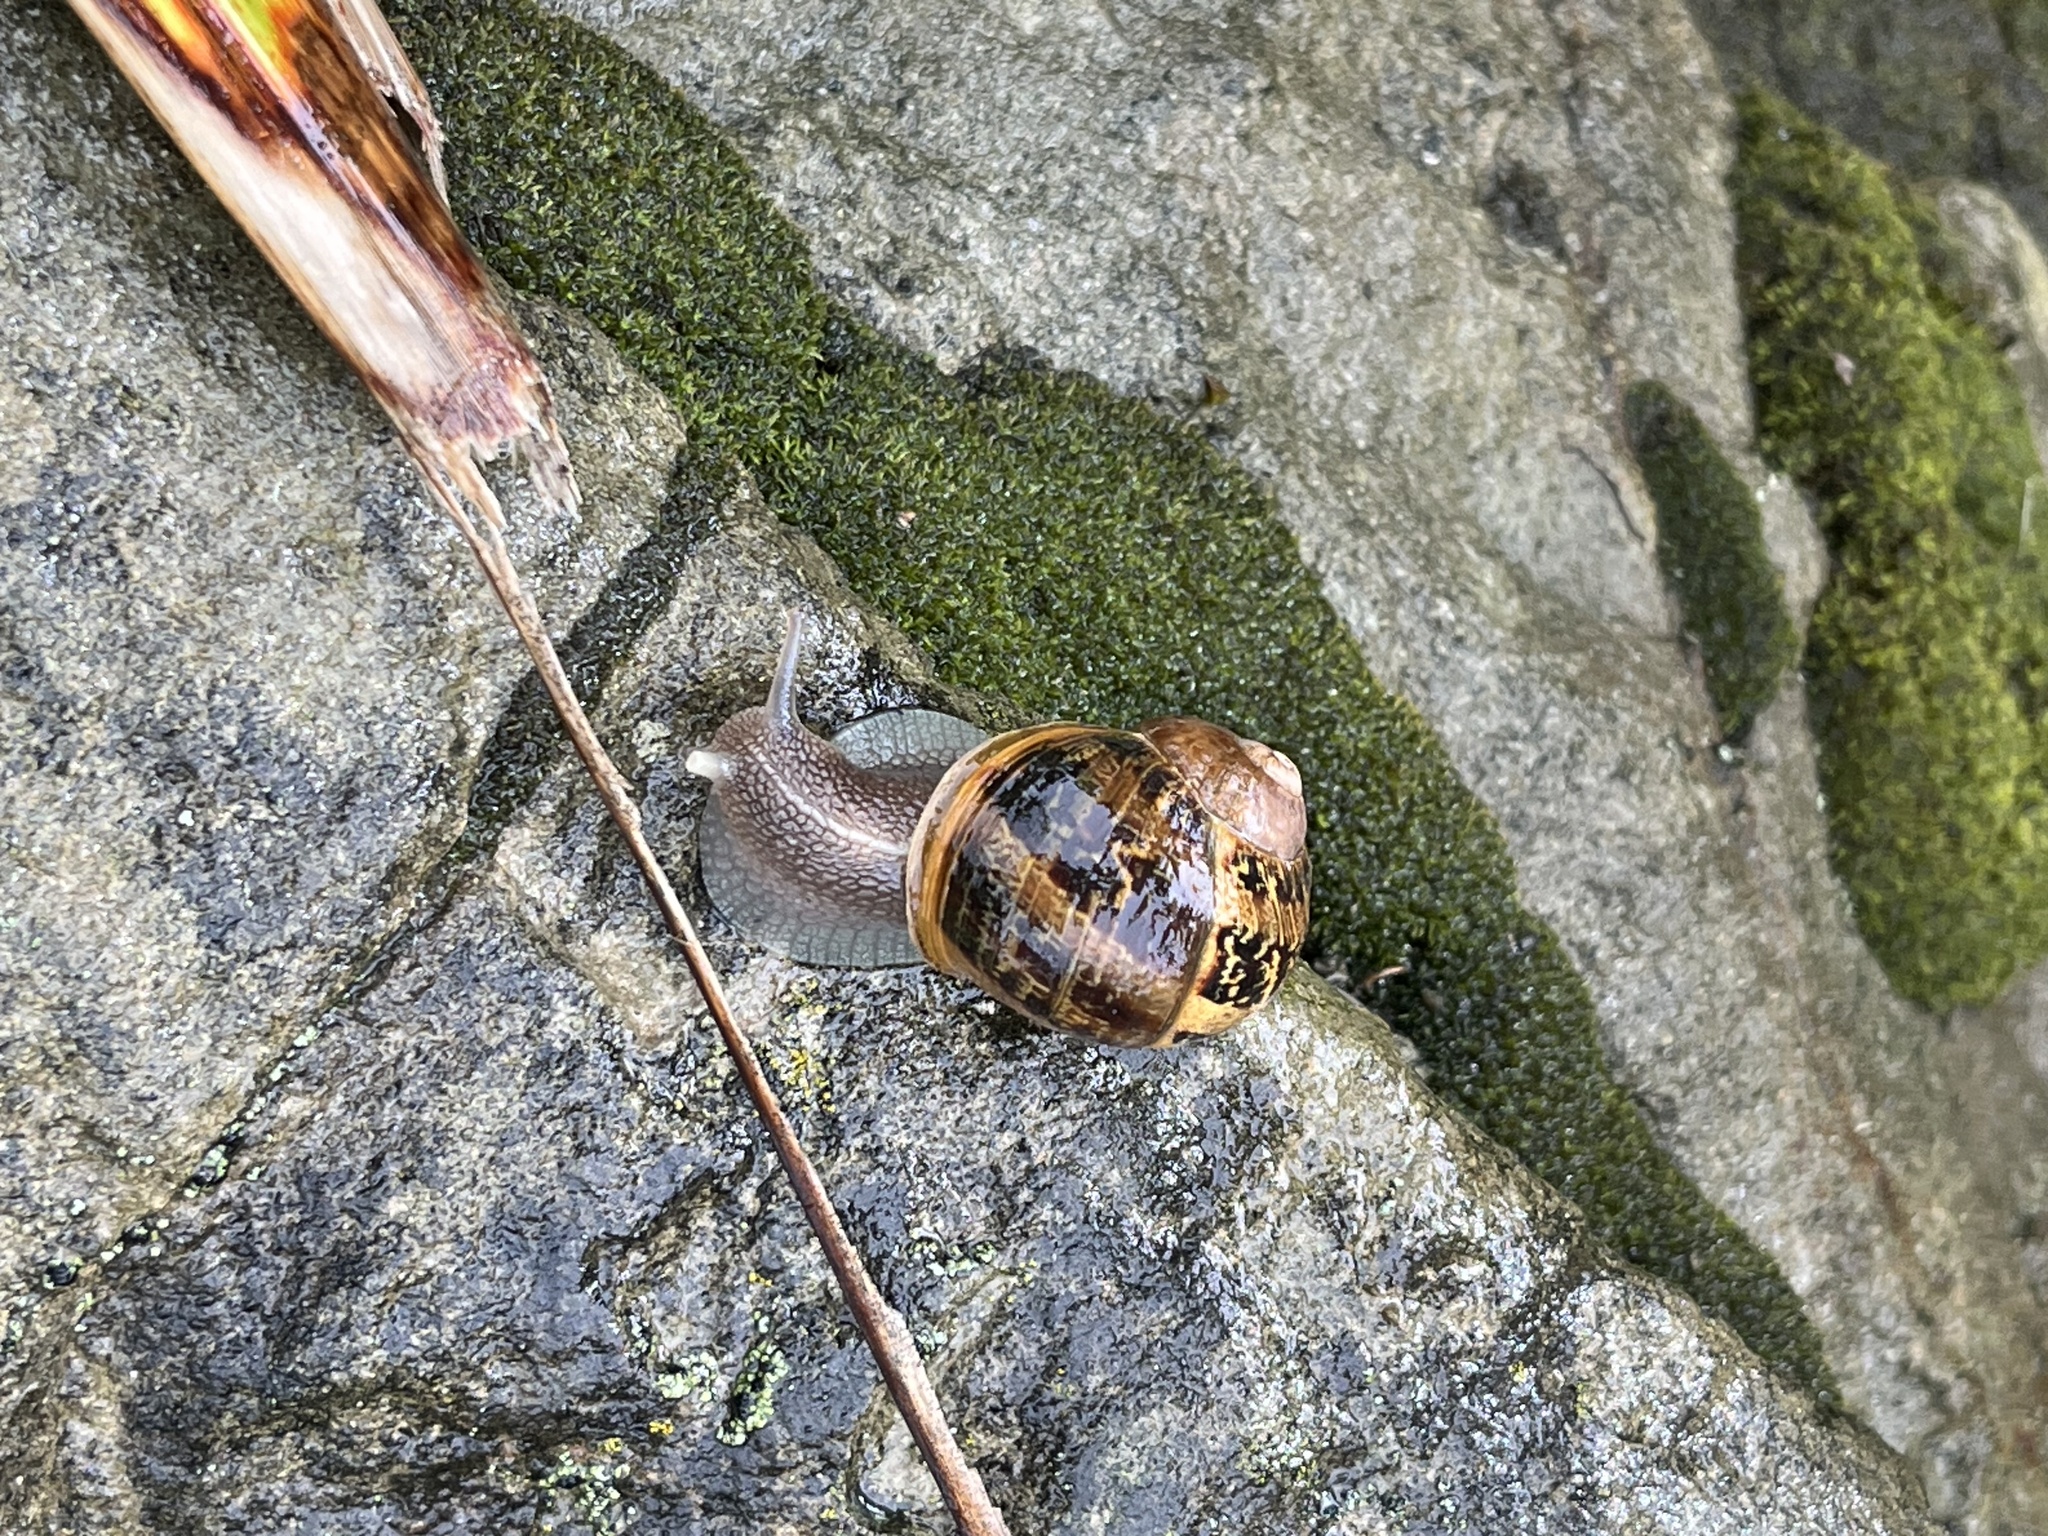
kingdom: Animalia
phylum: Mollusca
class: Gastropoda
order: Stylommatophora
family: Helicidae
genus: Cornu
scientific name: Cornu aspersum
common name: Brown garden snail
